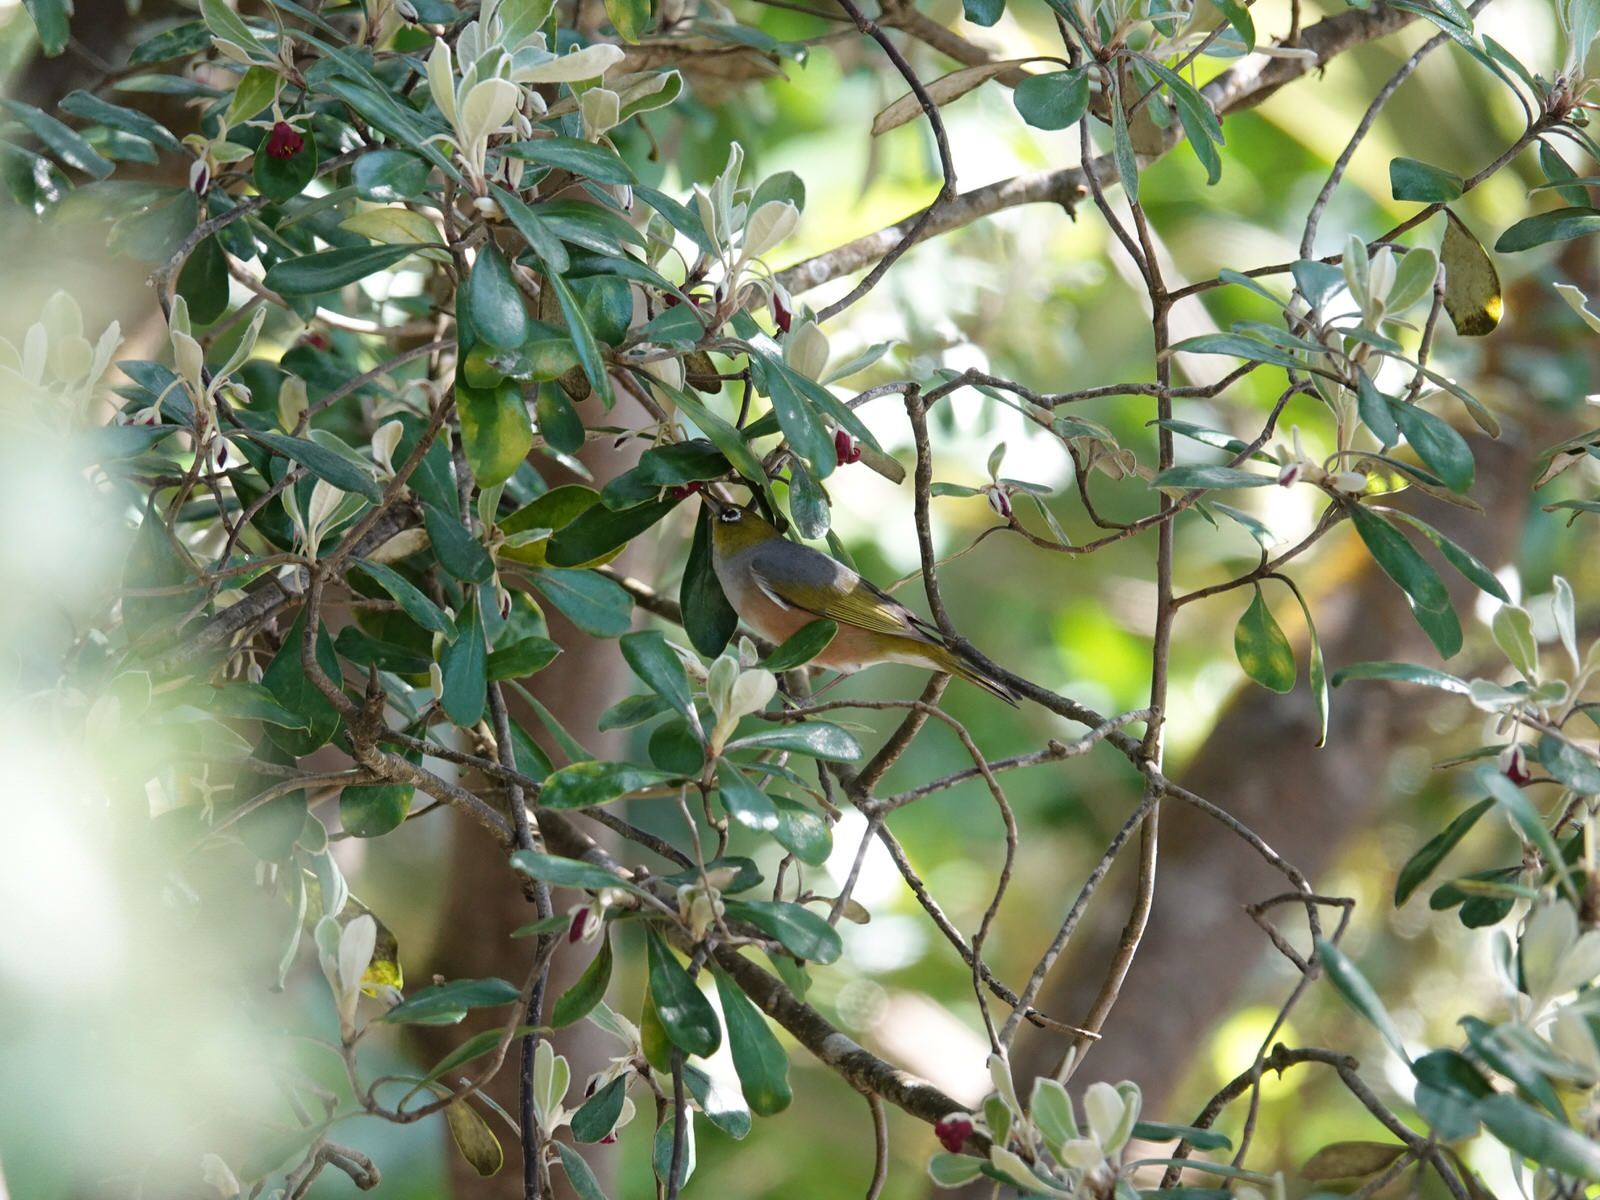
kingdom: Animalia
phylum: Chordata
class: Aves
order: Passeriformes
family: Zosteropidae
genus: Zosterops
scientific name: Zosterops lateralis
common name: Silvereye
